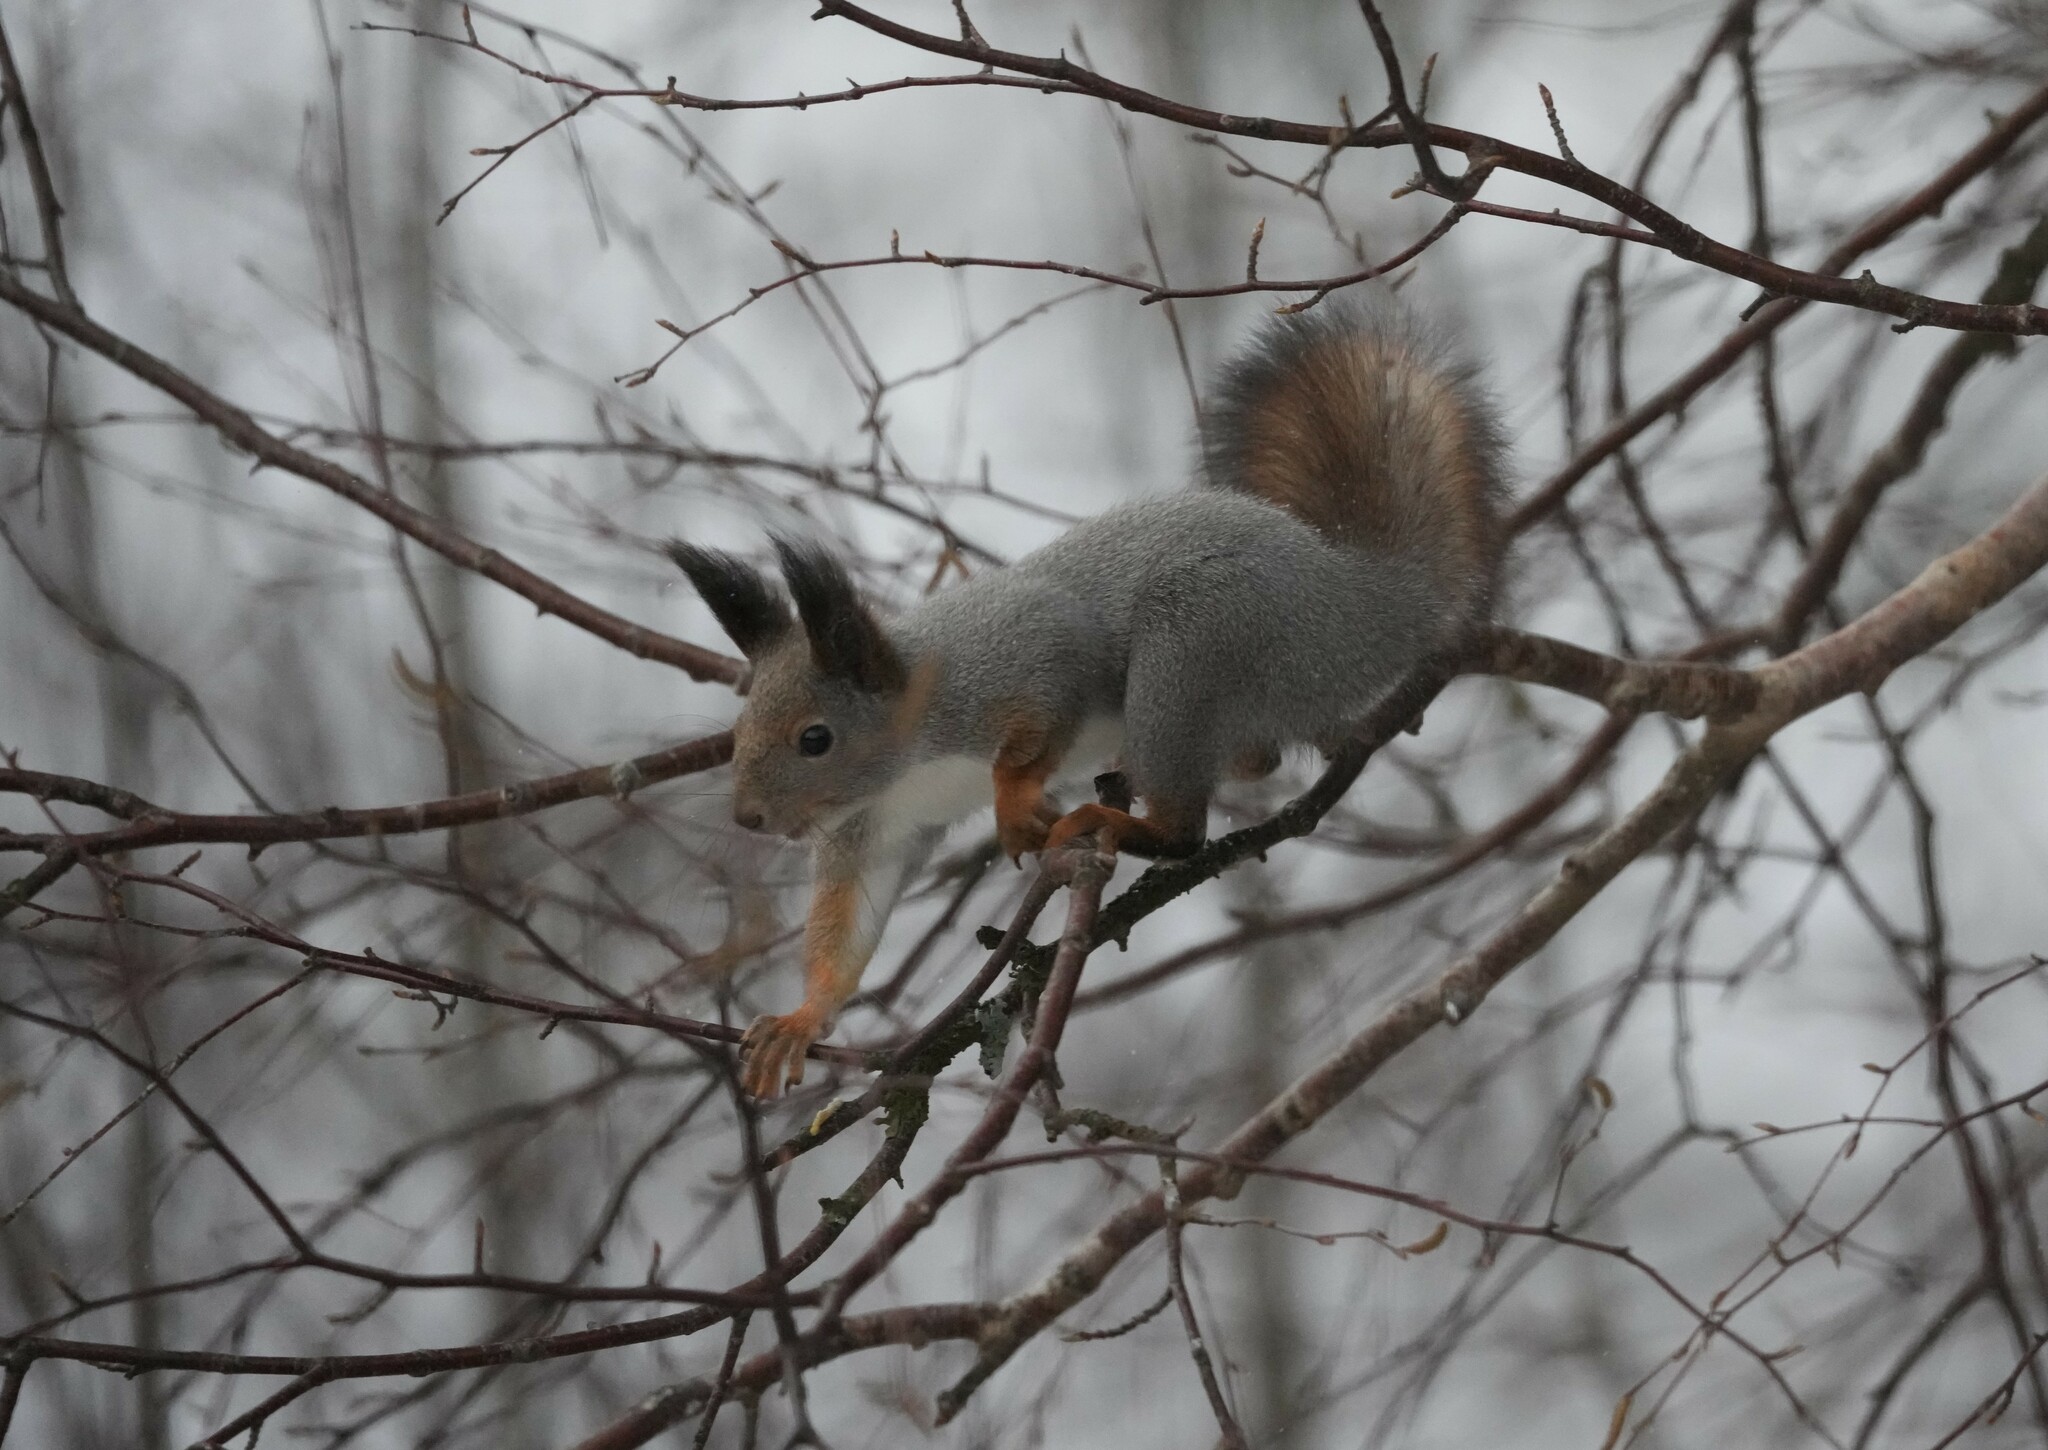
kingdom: Animalia
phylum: Chordata
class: Mammalia
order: Rodentia
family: Sciuridae
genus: Sciurus
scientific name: Sciurus vulgaris
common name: Eurasian red squirrel
